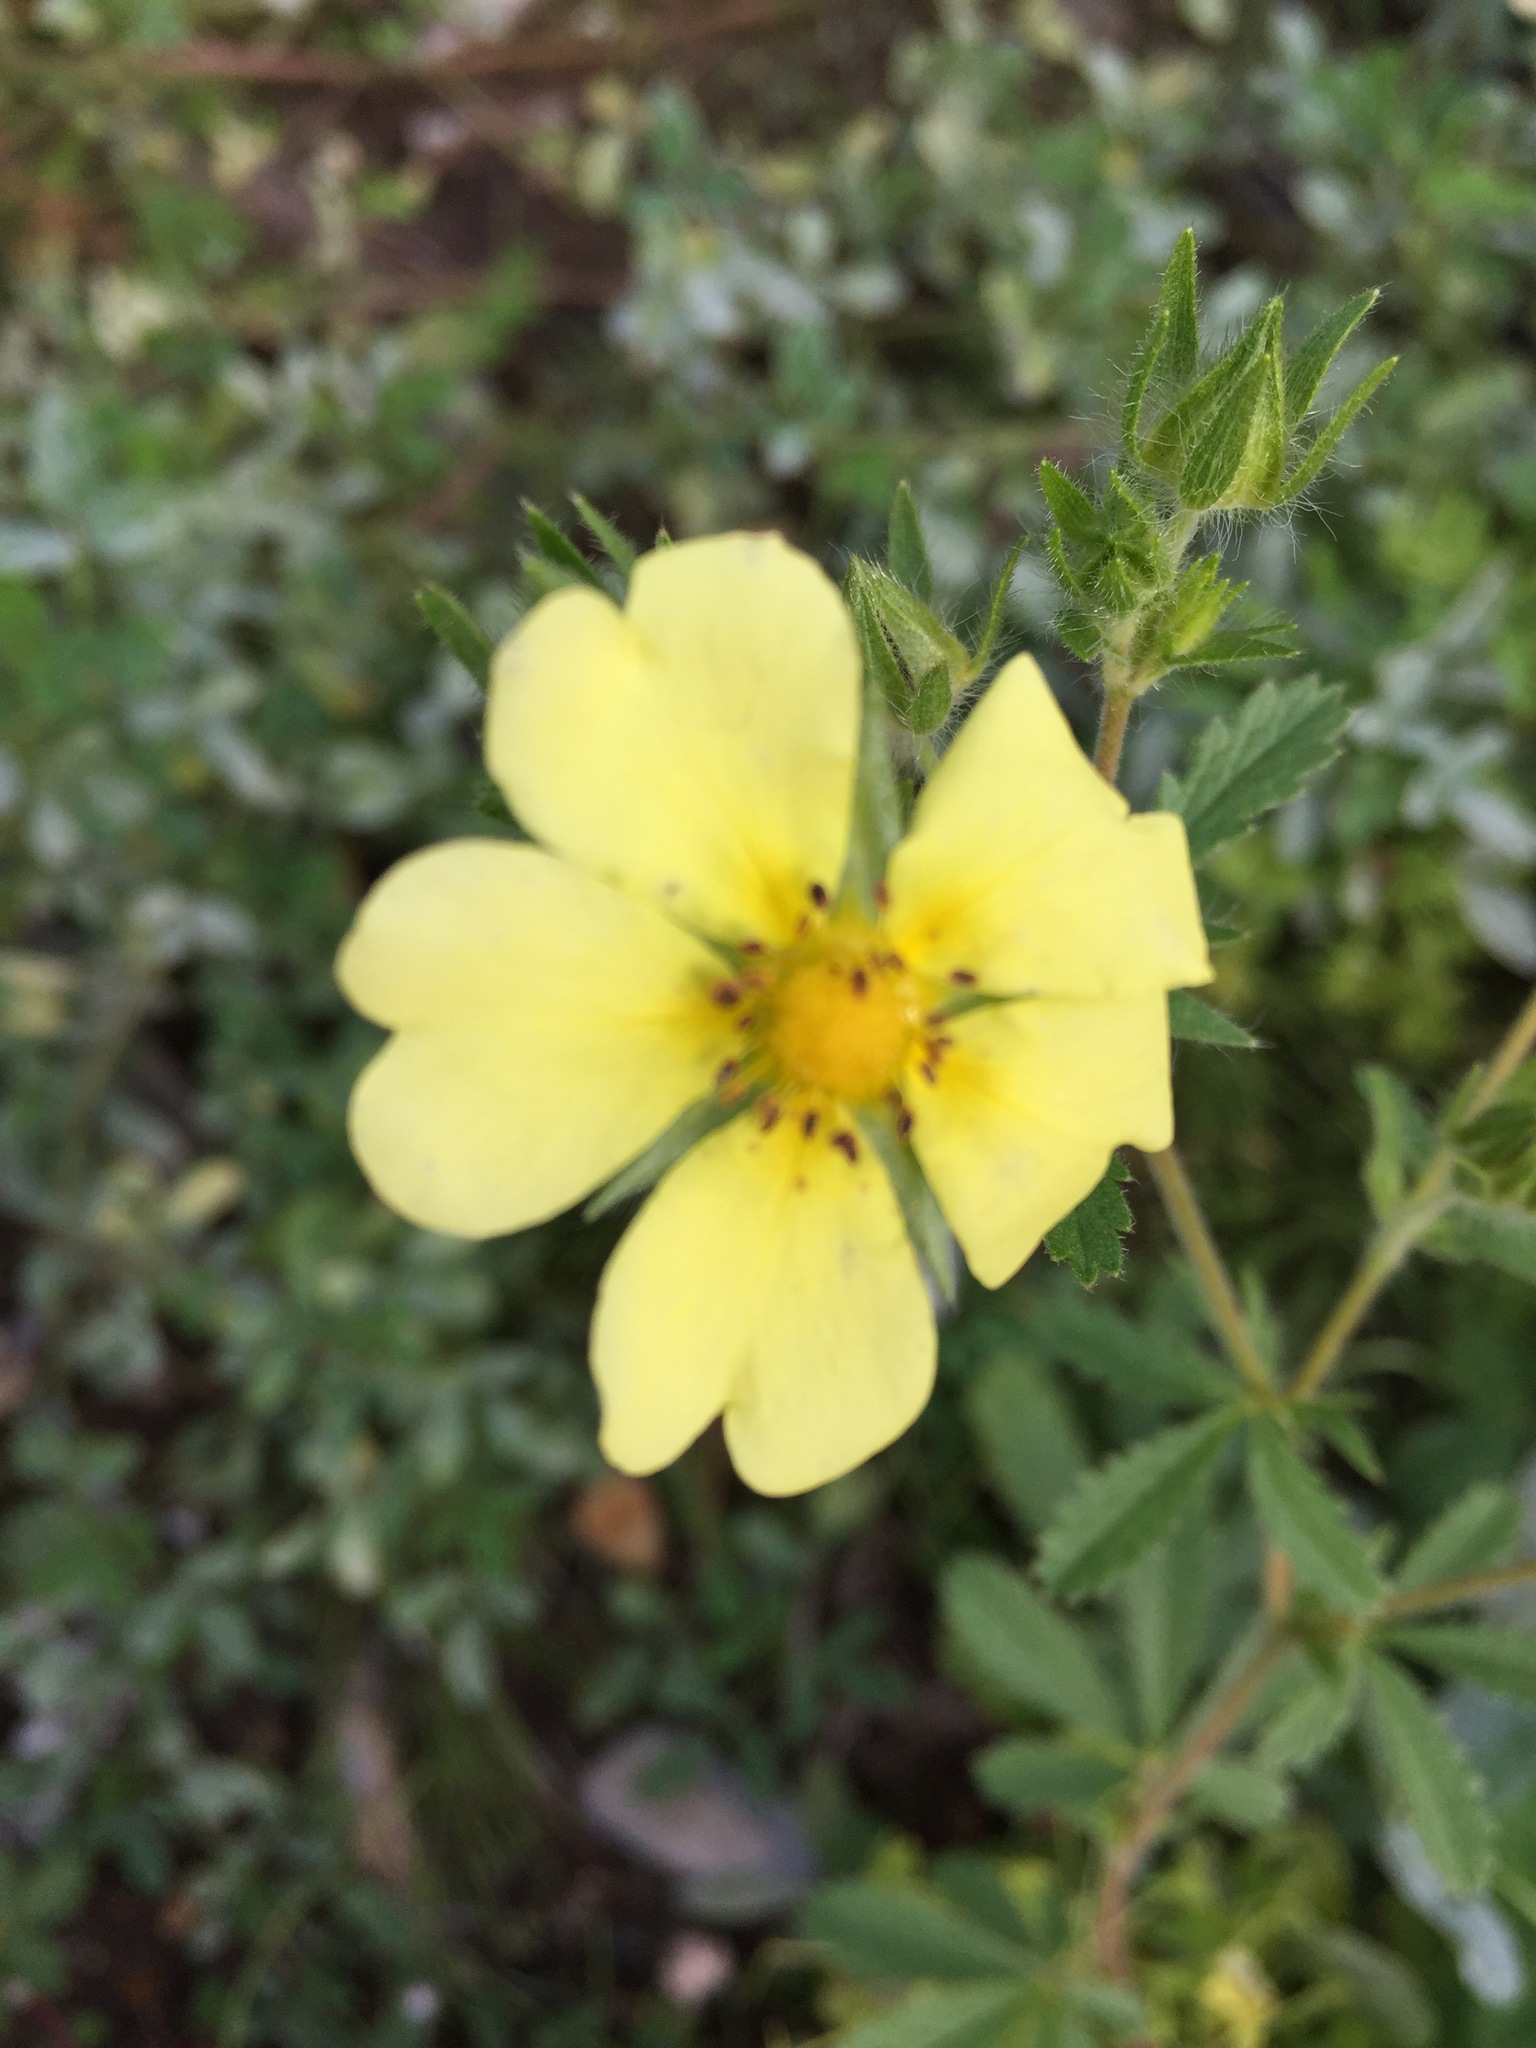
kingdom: Plantae
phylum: Tracheophyta
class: Magnoliopsida
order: Rosales
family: Rosaceae
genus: Potentilla
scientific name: Potentilla recta
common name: Sulphur cinquefoil
